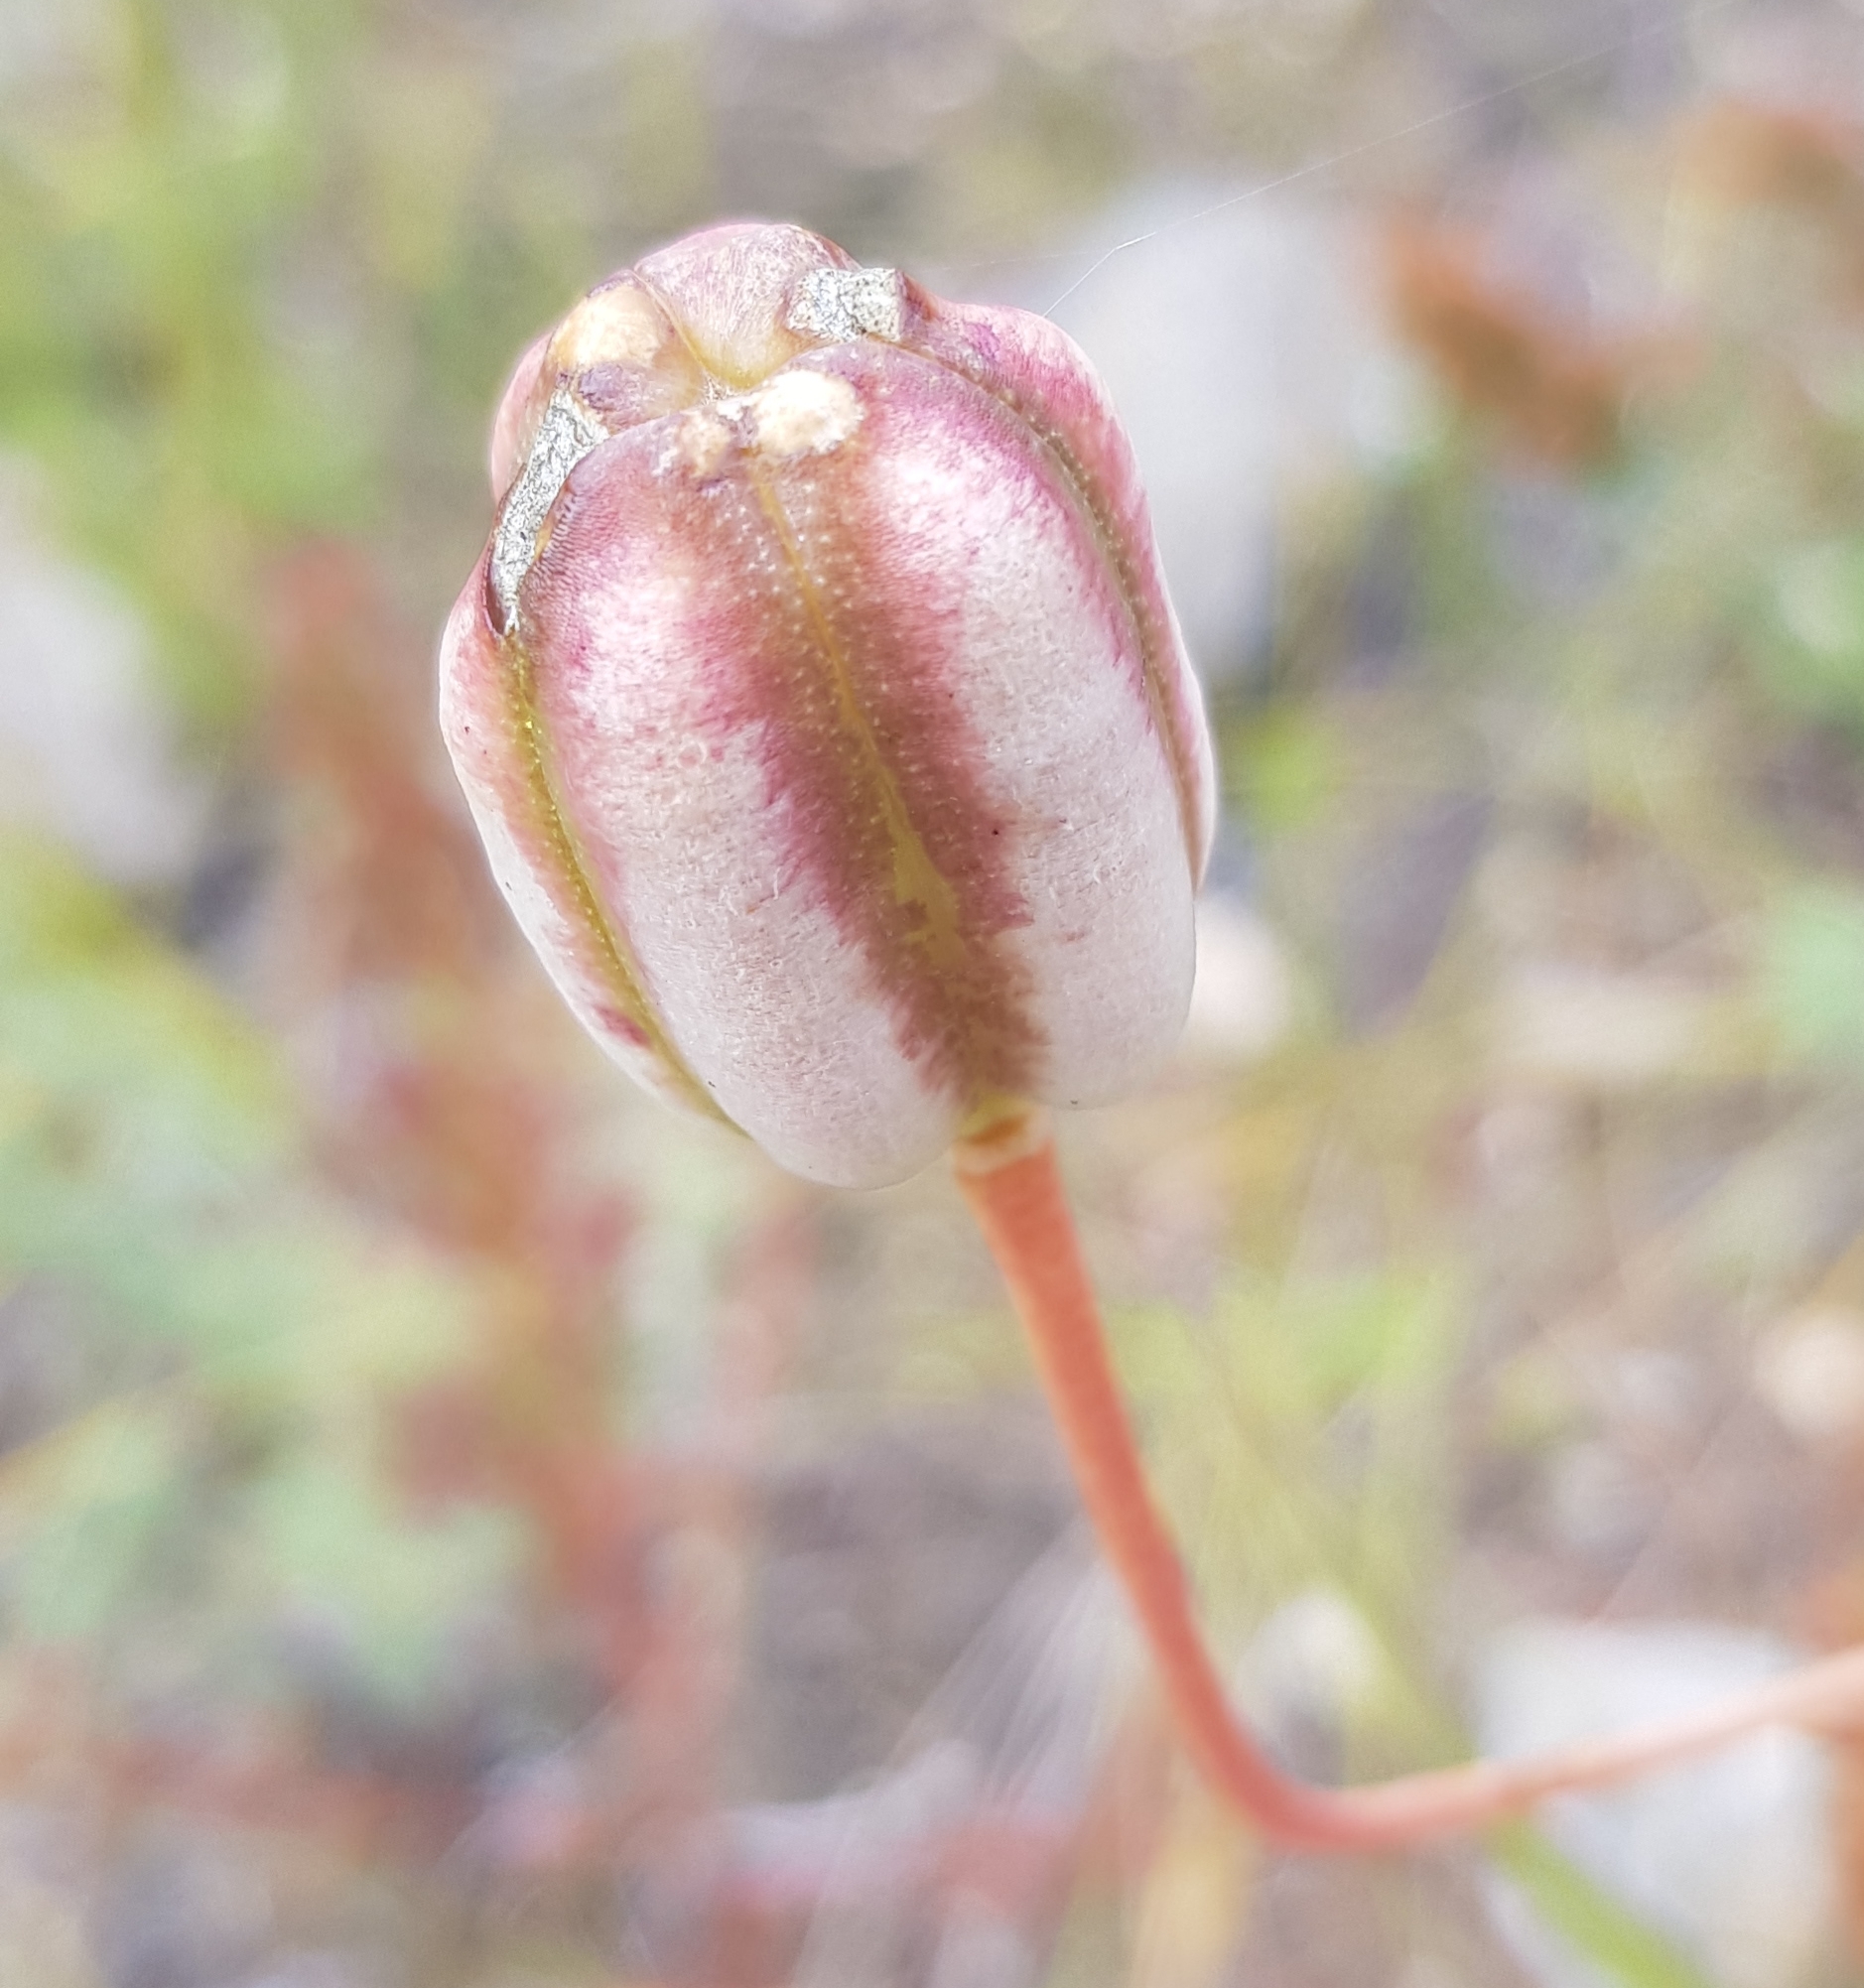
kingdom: Plantae
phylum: Tracheophyta
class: Liliopsida
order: Liliales
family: Liliaceae
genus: Lilium
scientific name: Lilium pumilum
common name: Coral lily
